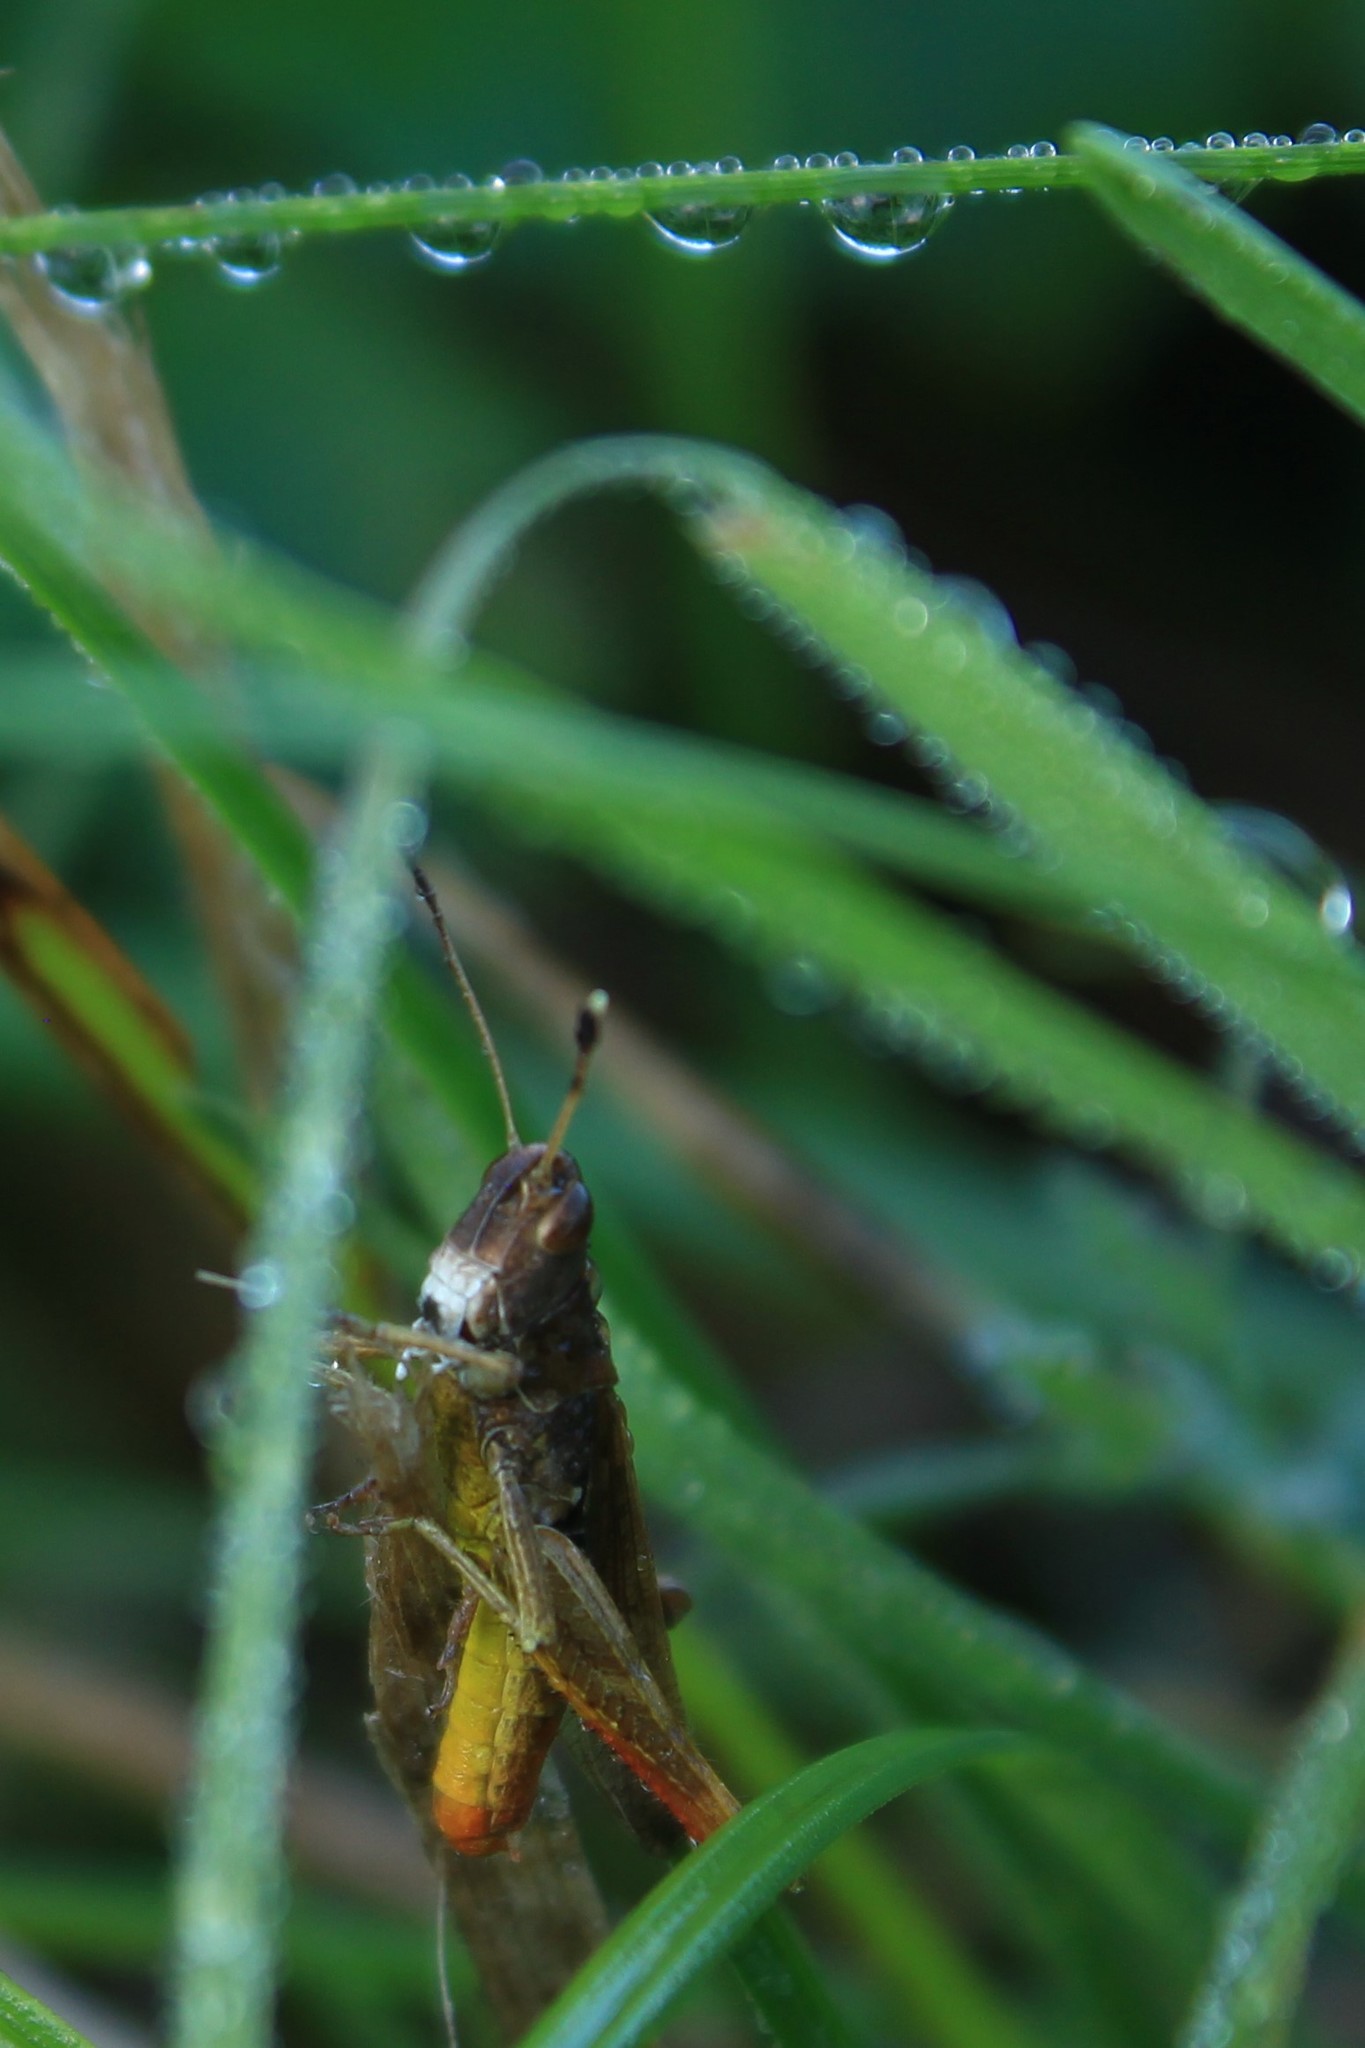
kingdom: Animalia
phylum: Arthropoda
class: Insecta
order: Orthoptera
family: Acrididae
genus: Gomphocerippus
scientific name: Gomphocerippus rufus
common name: Rufous grasshopper
